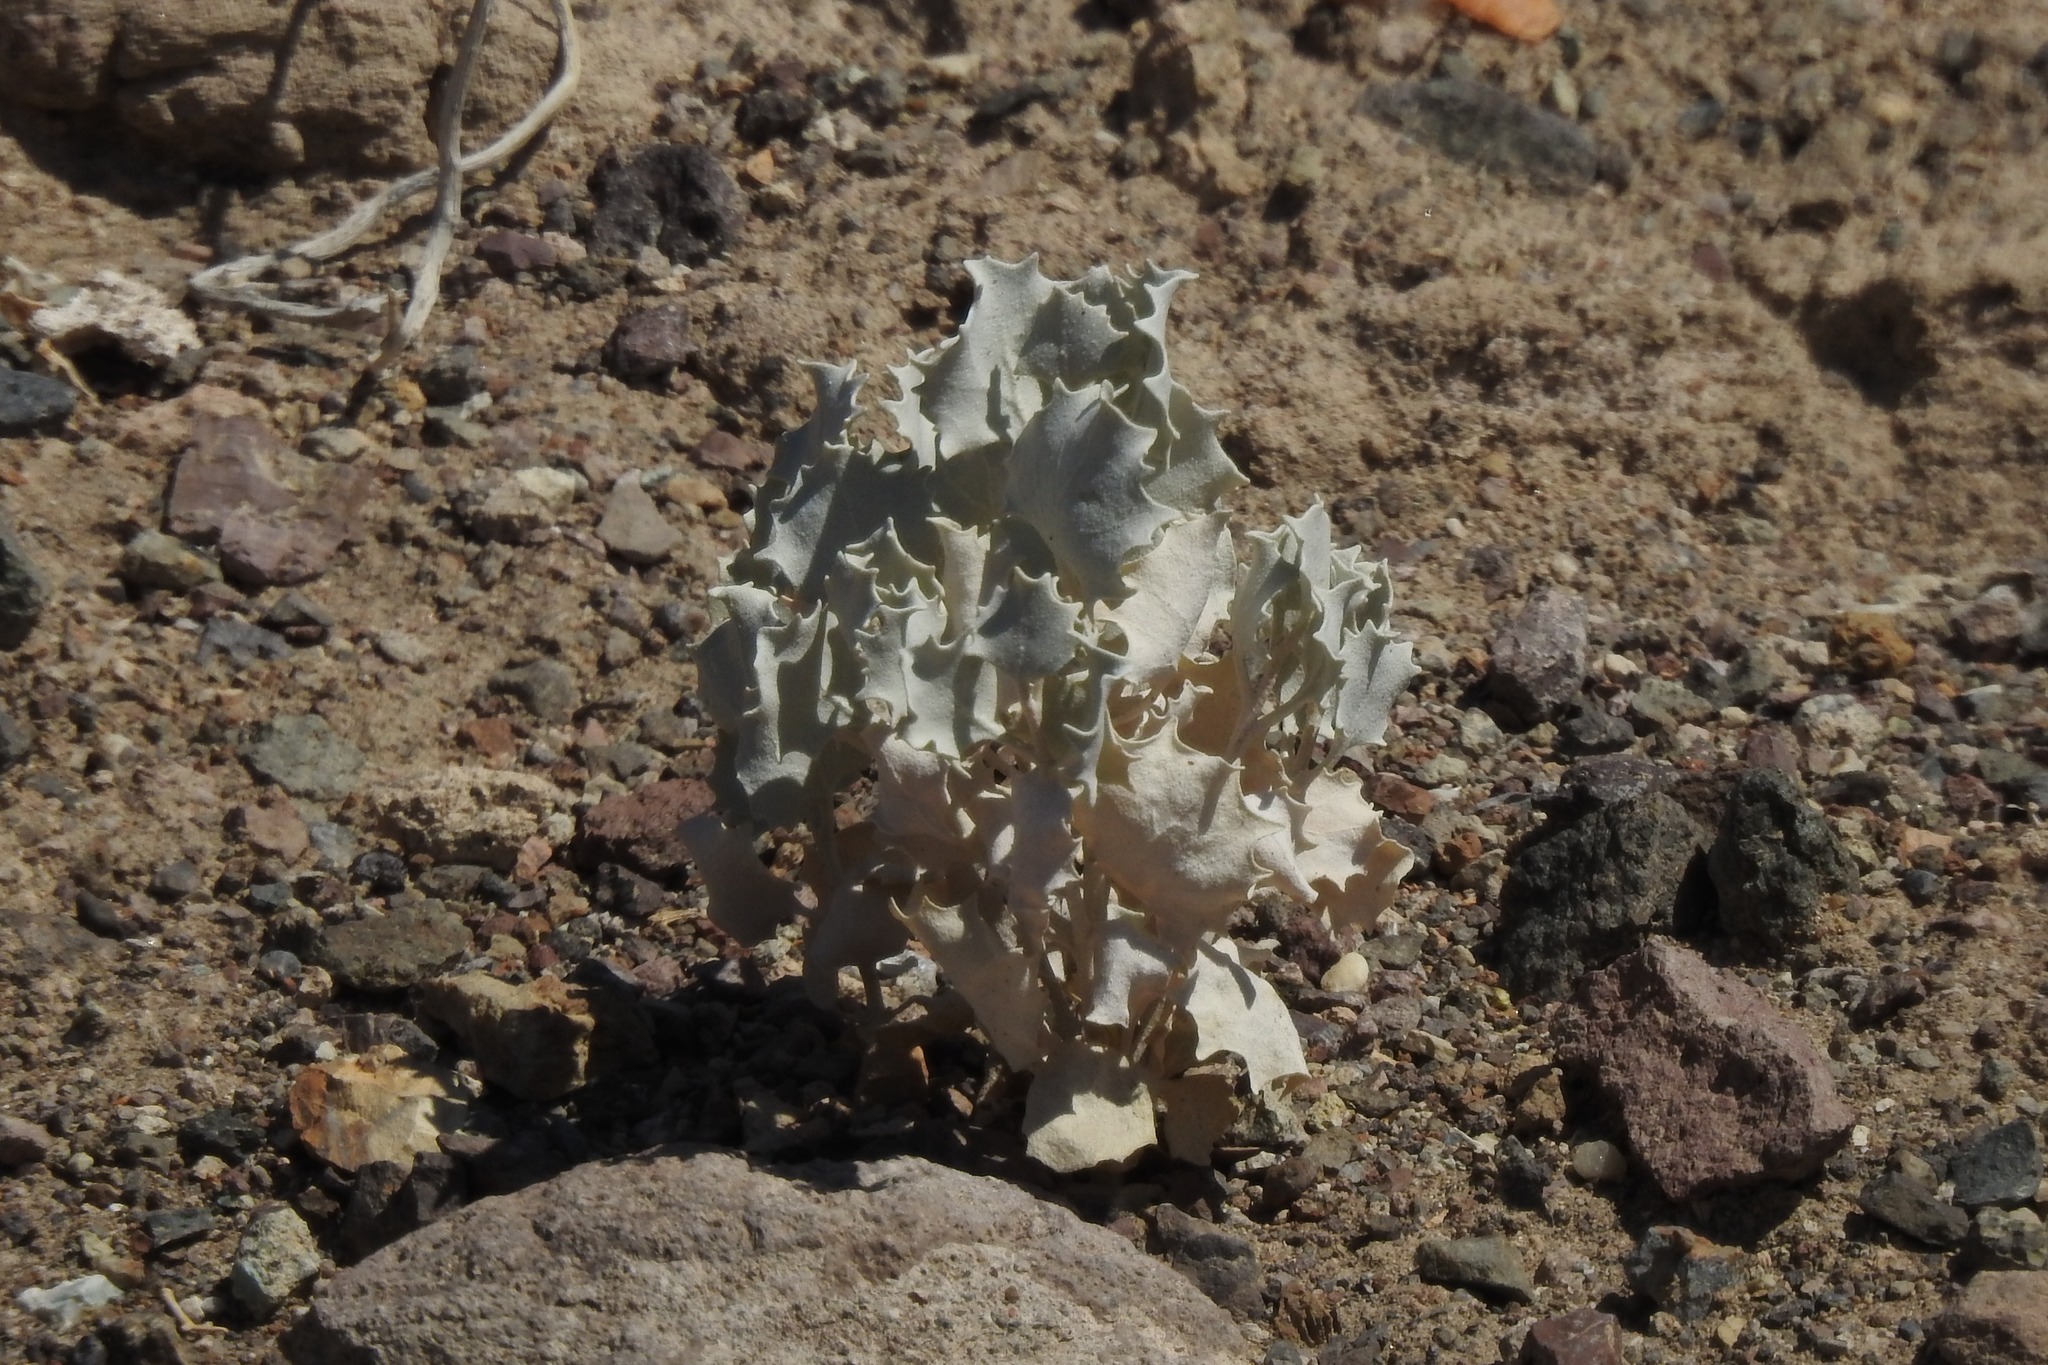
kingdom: Plantae
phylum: Tracheophyta
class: Magnoliopsida
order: Caryophyllales
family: Amaranthaceae
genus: Atriplex
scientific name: Atriplex hymenelytra
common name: Desert-holly
